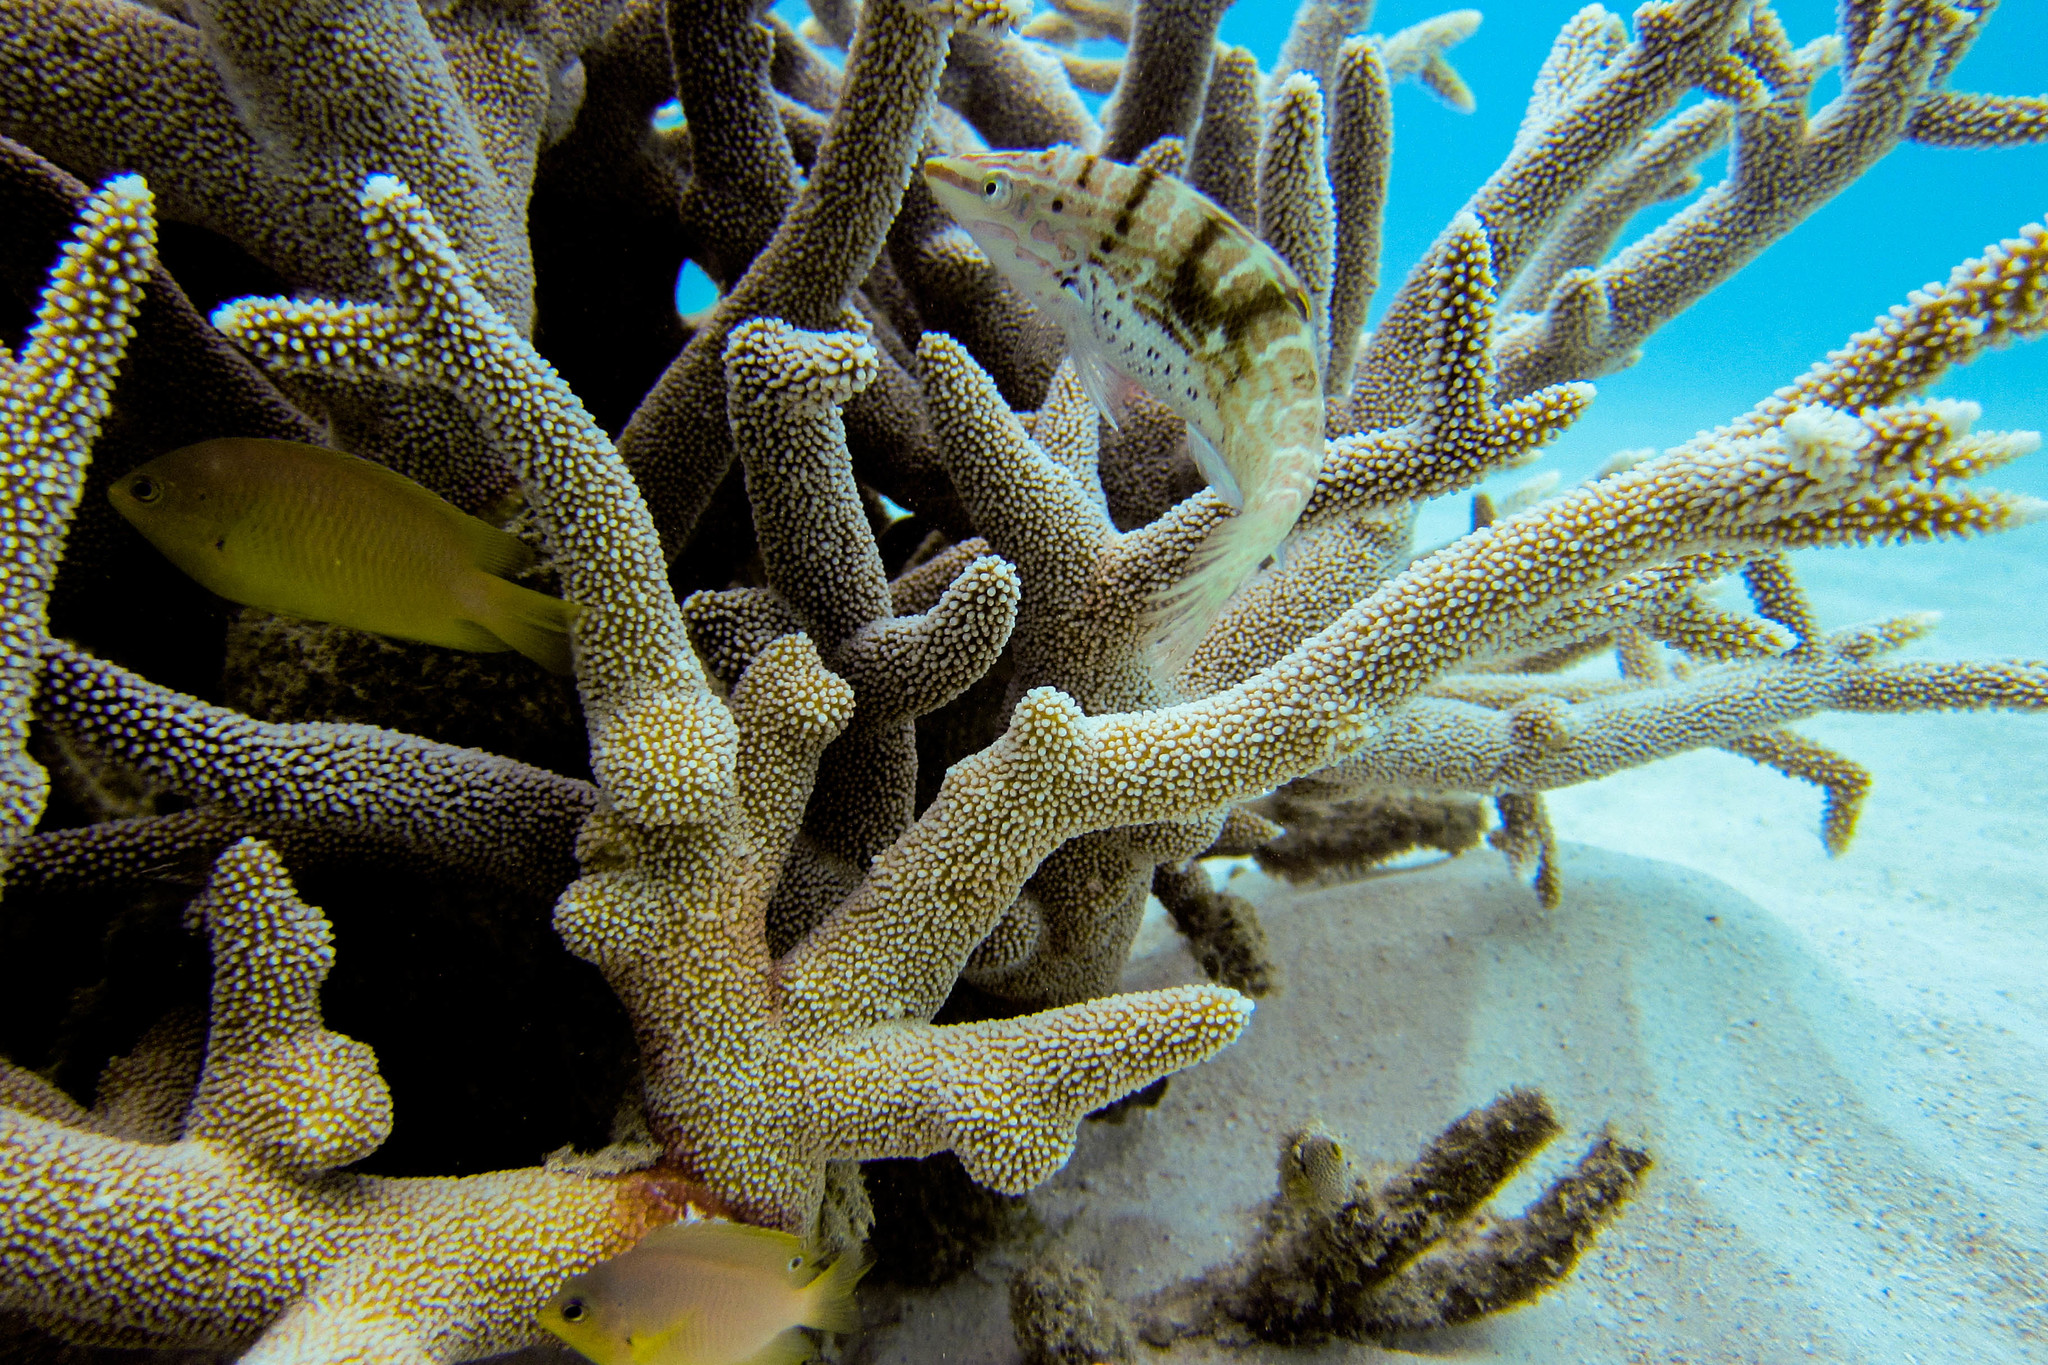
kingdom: Animalia
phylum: Chordata
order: Perciformes
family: Labridae
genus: Coris
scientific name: Coris batuensis
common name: Batu coris
